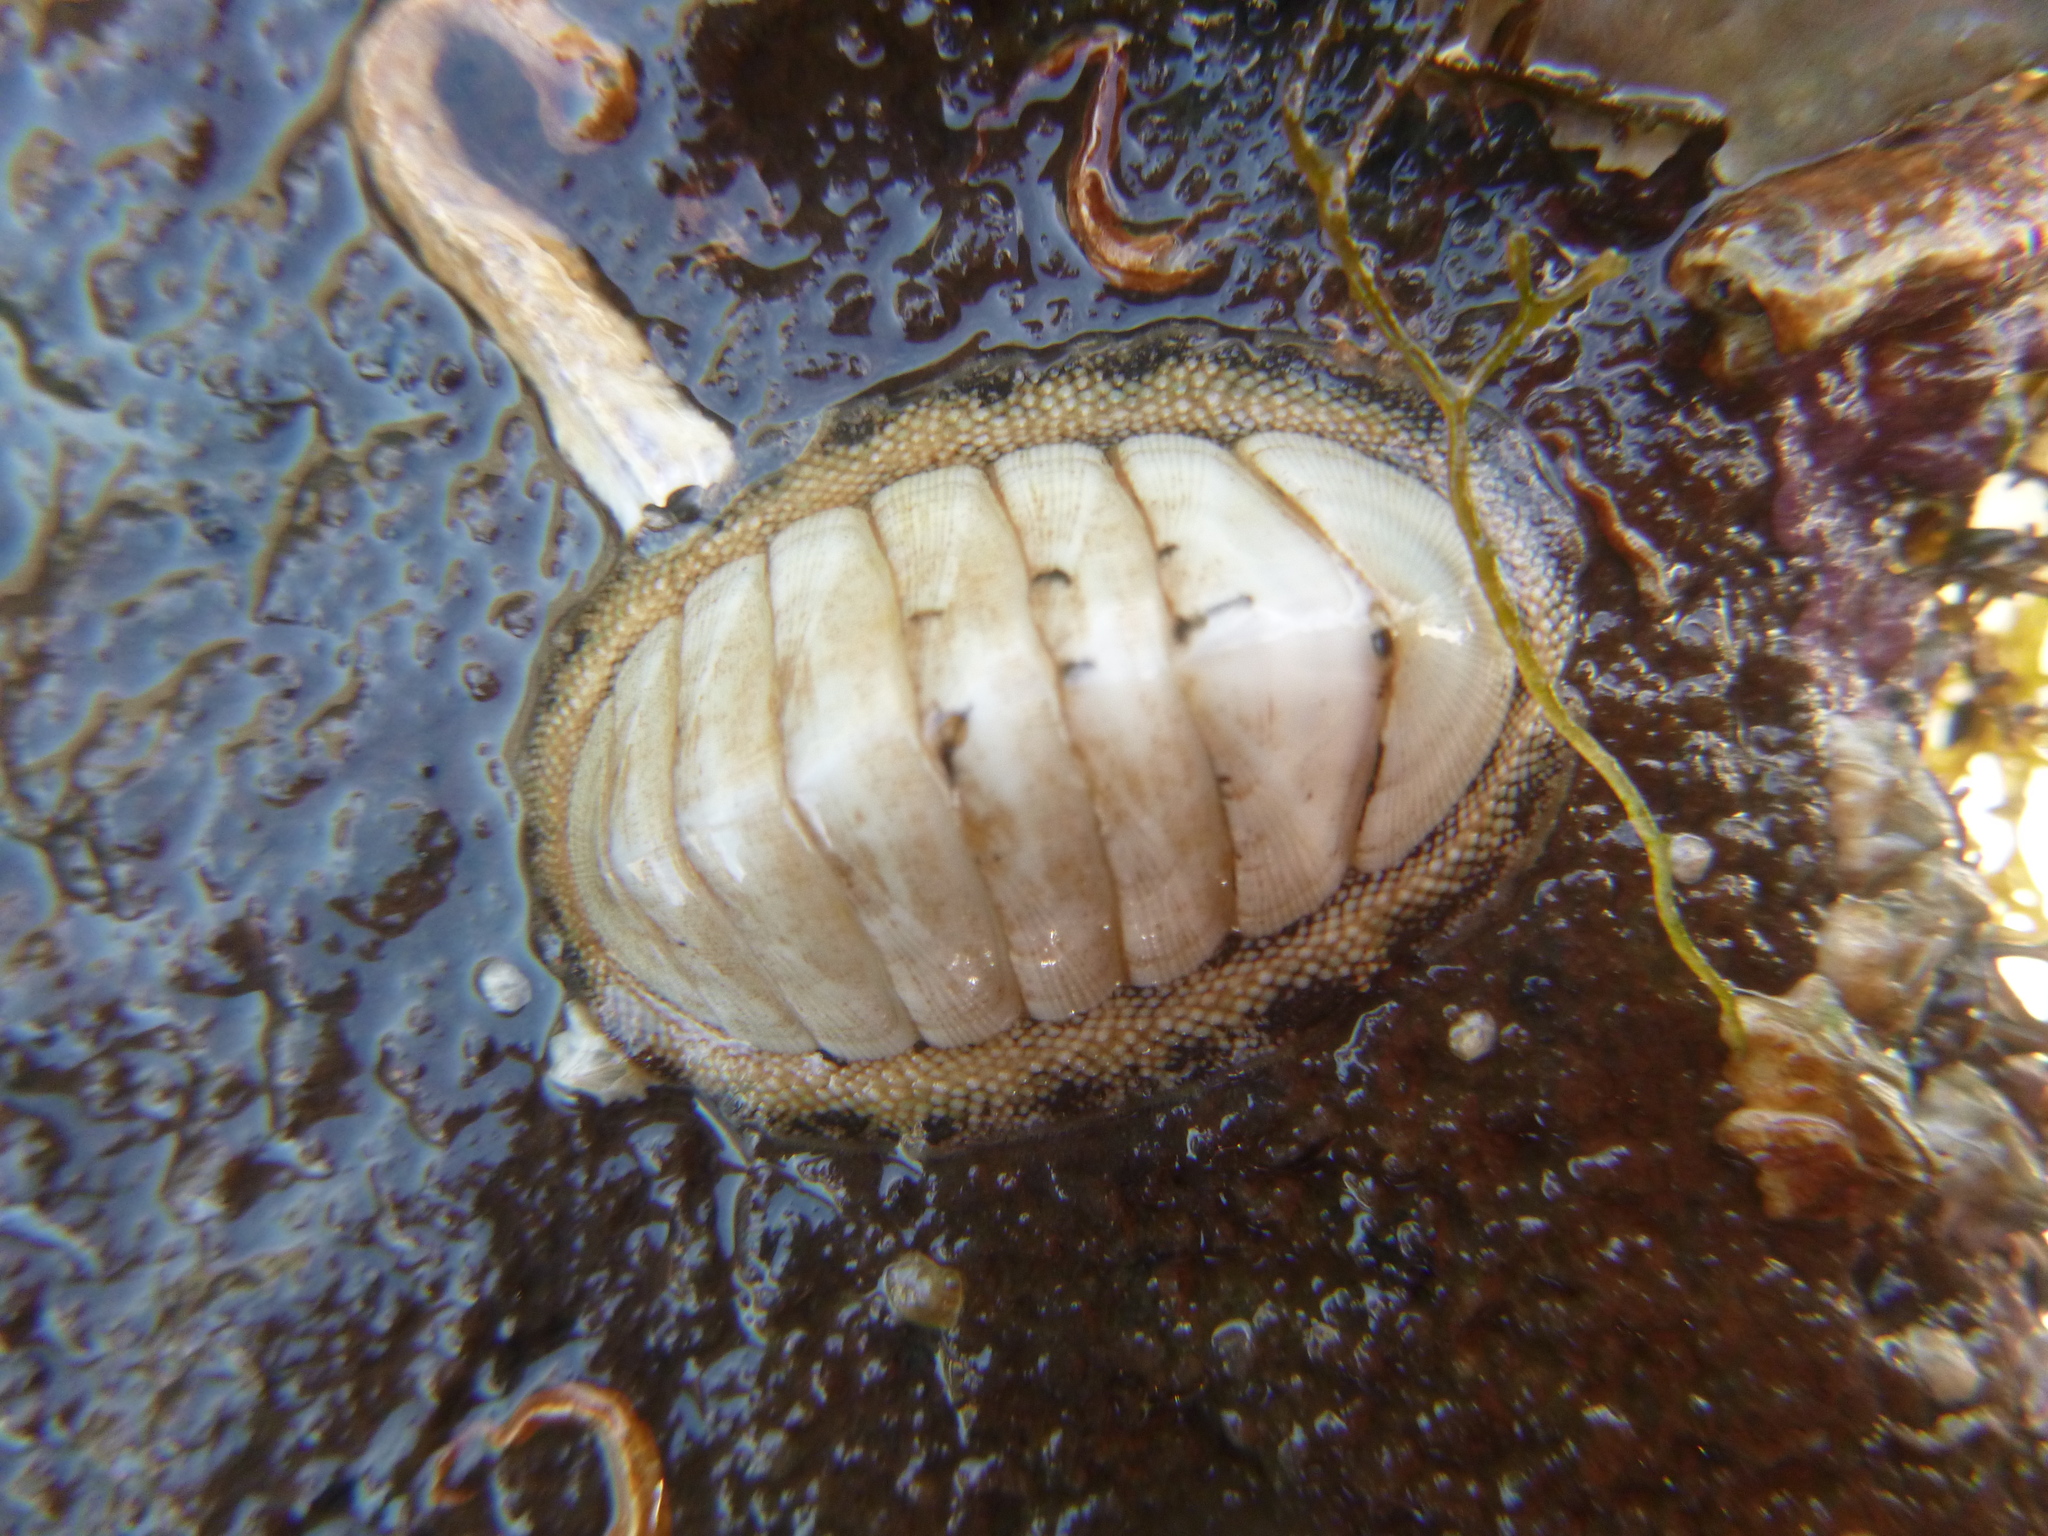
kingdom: Animalia
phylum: Mollusca
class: Polyplacophora
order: Chitonida
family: Chitonidae
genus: Chiton
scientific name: Chiton glaucus
